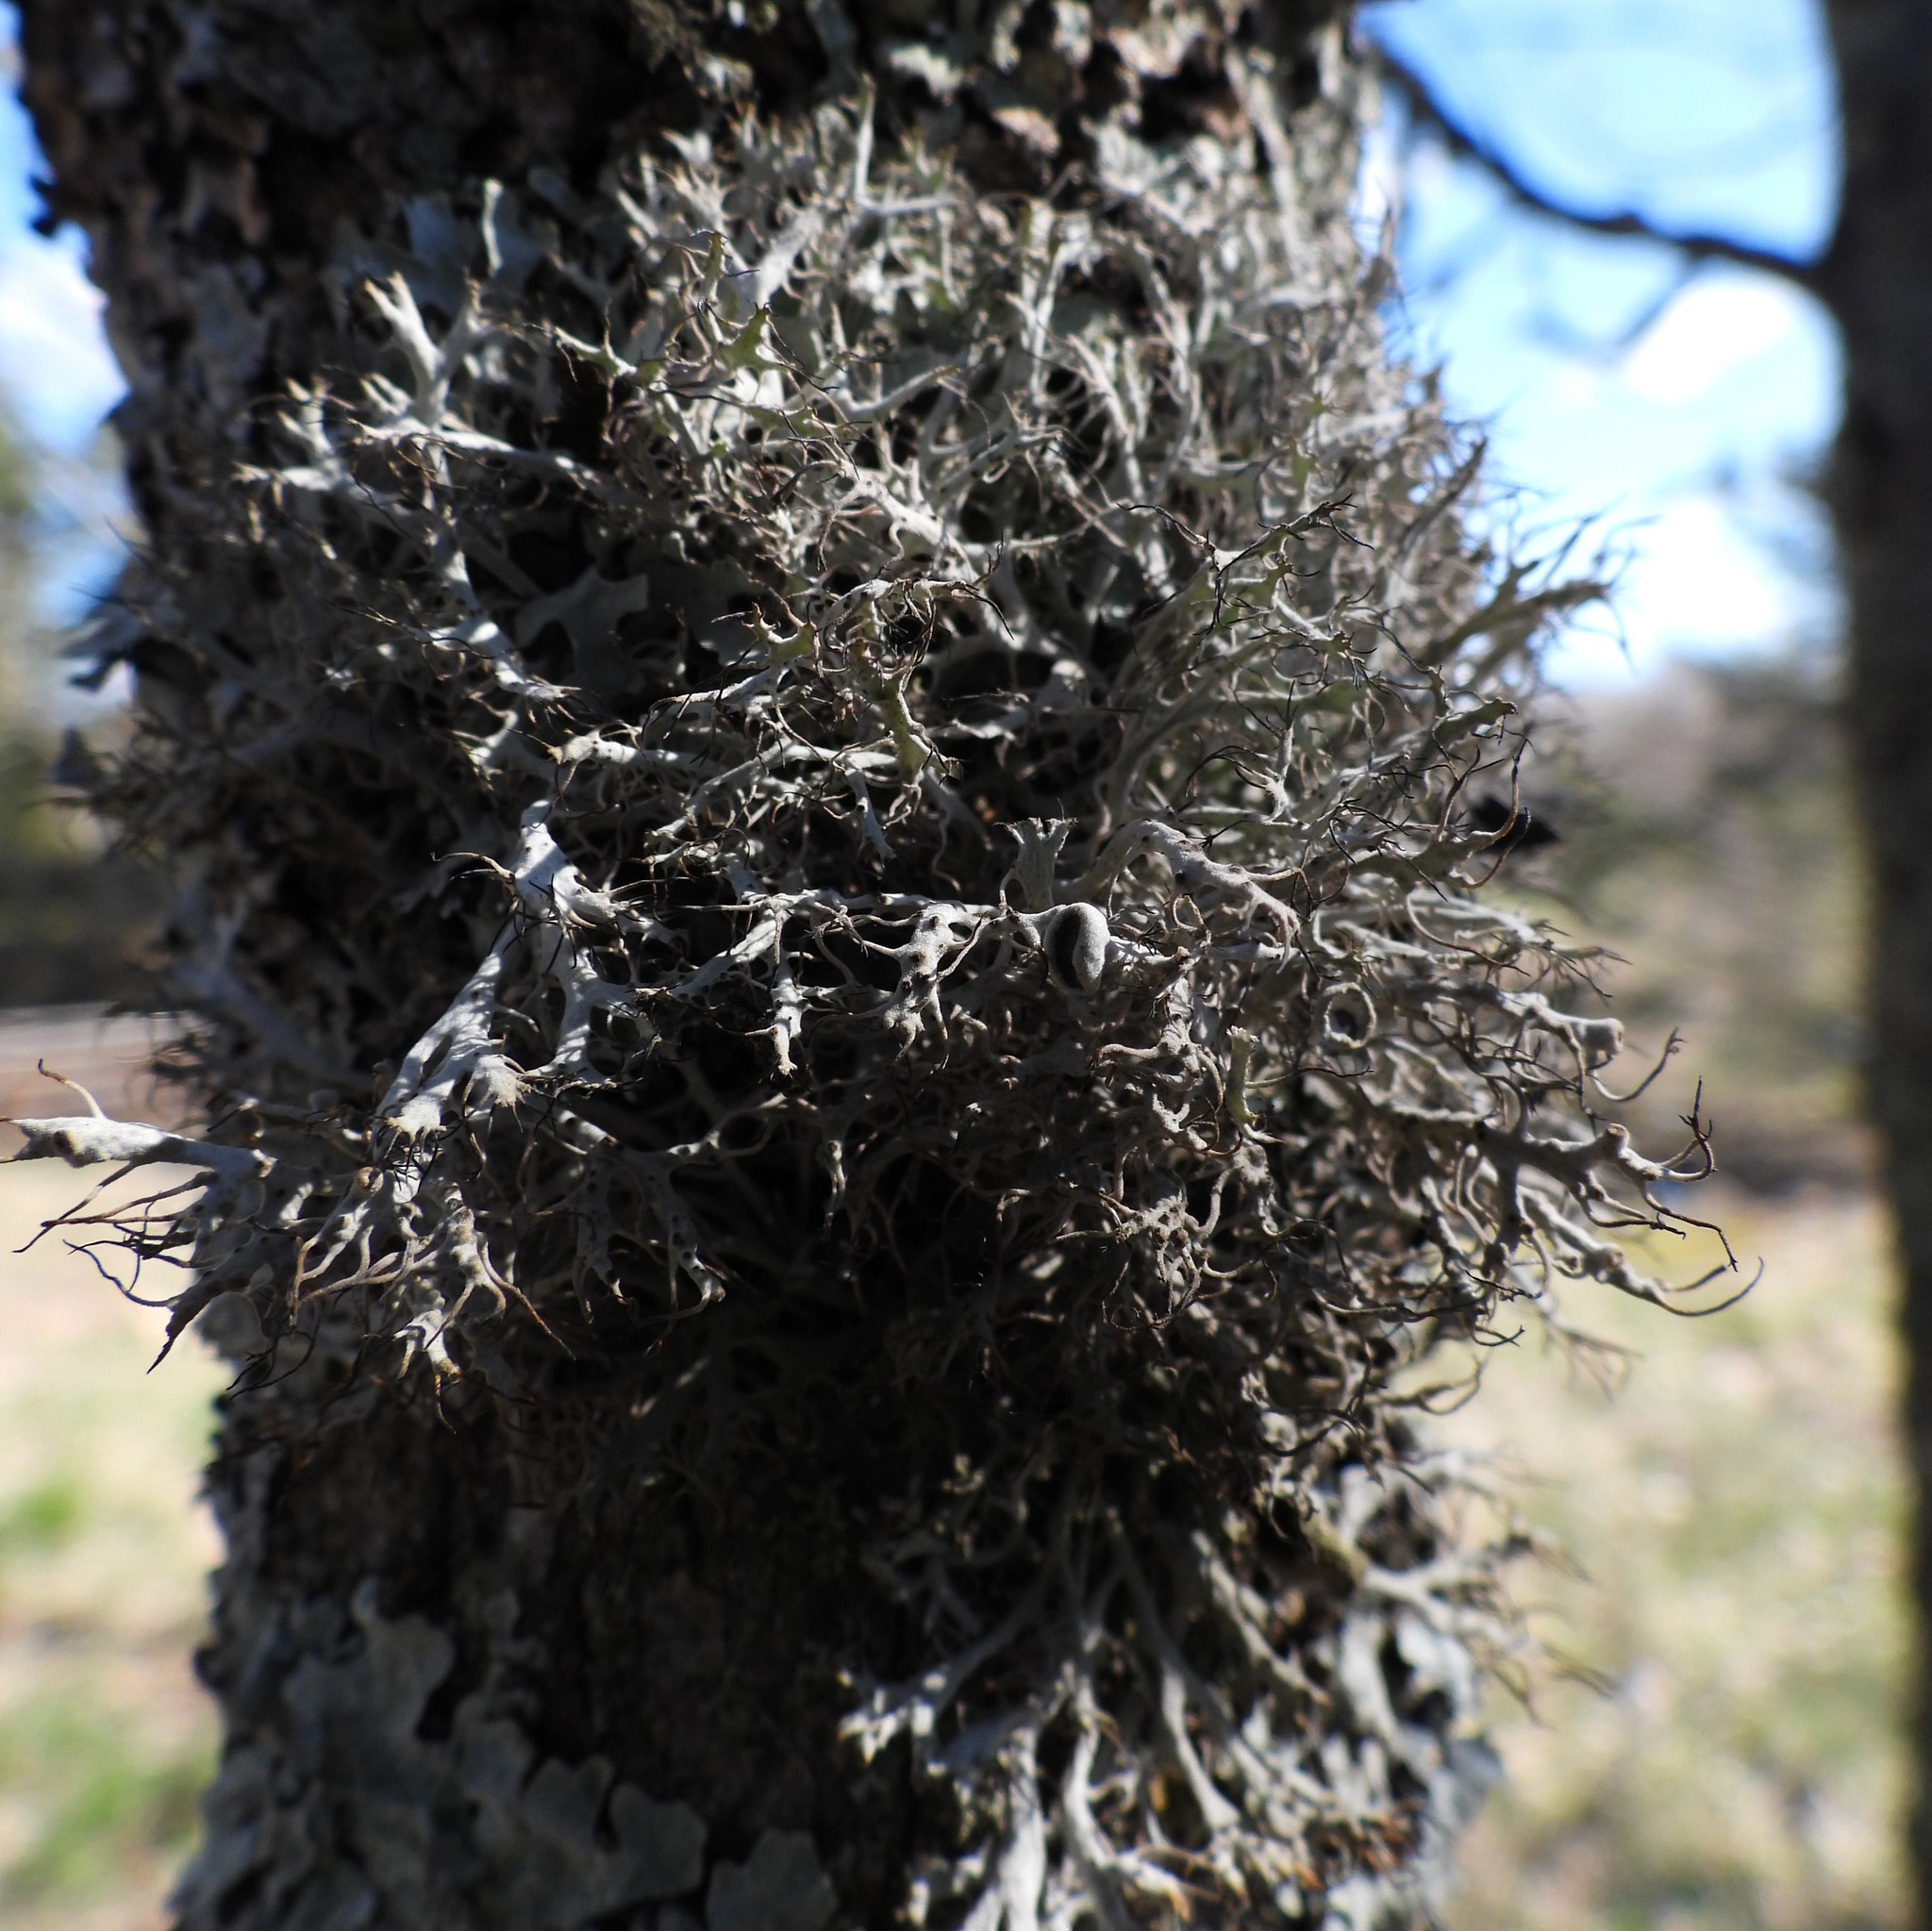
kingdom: Fungi
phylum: Ascomycota
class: Lecanoromycetes
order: Caliciales
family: Physciaceae
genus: Anaptychia
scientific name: Anaptychia ciliaris
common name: Great ciliated lichen
